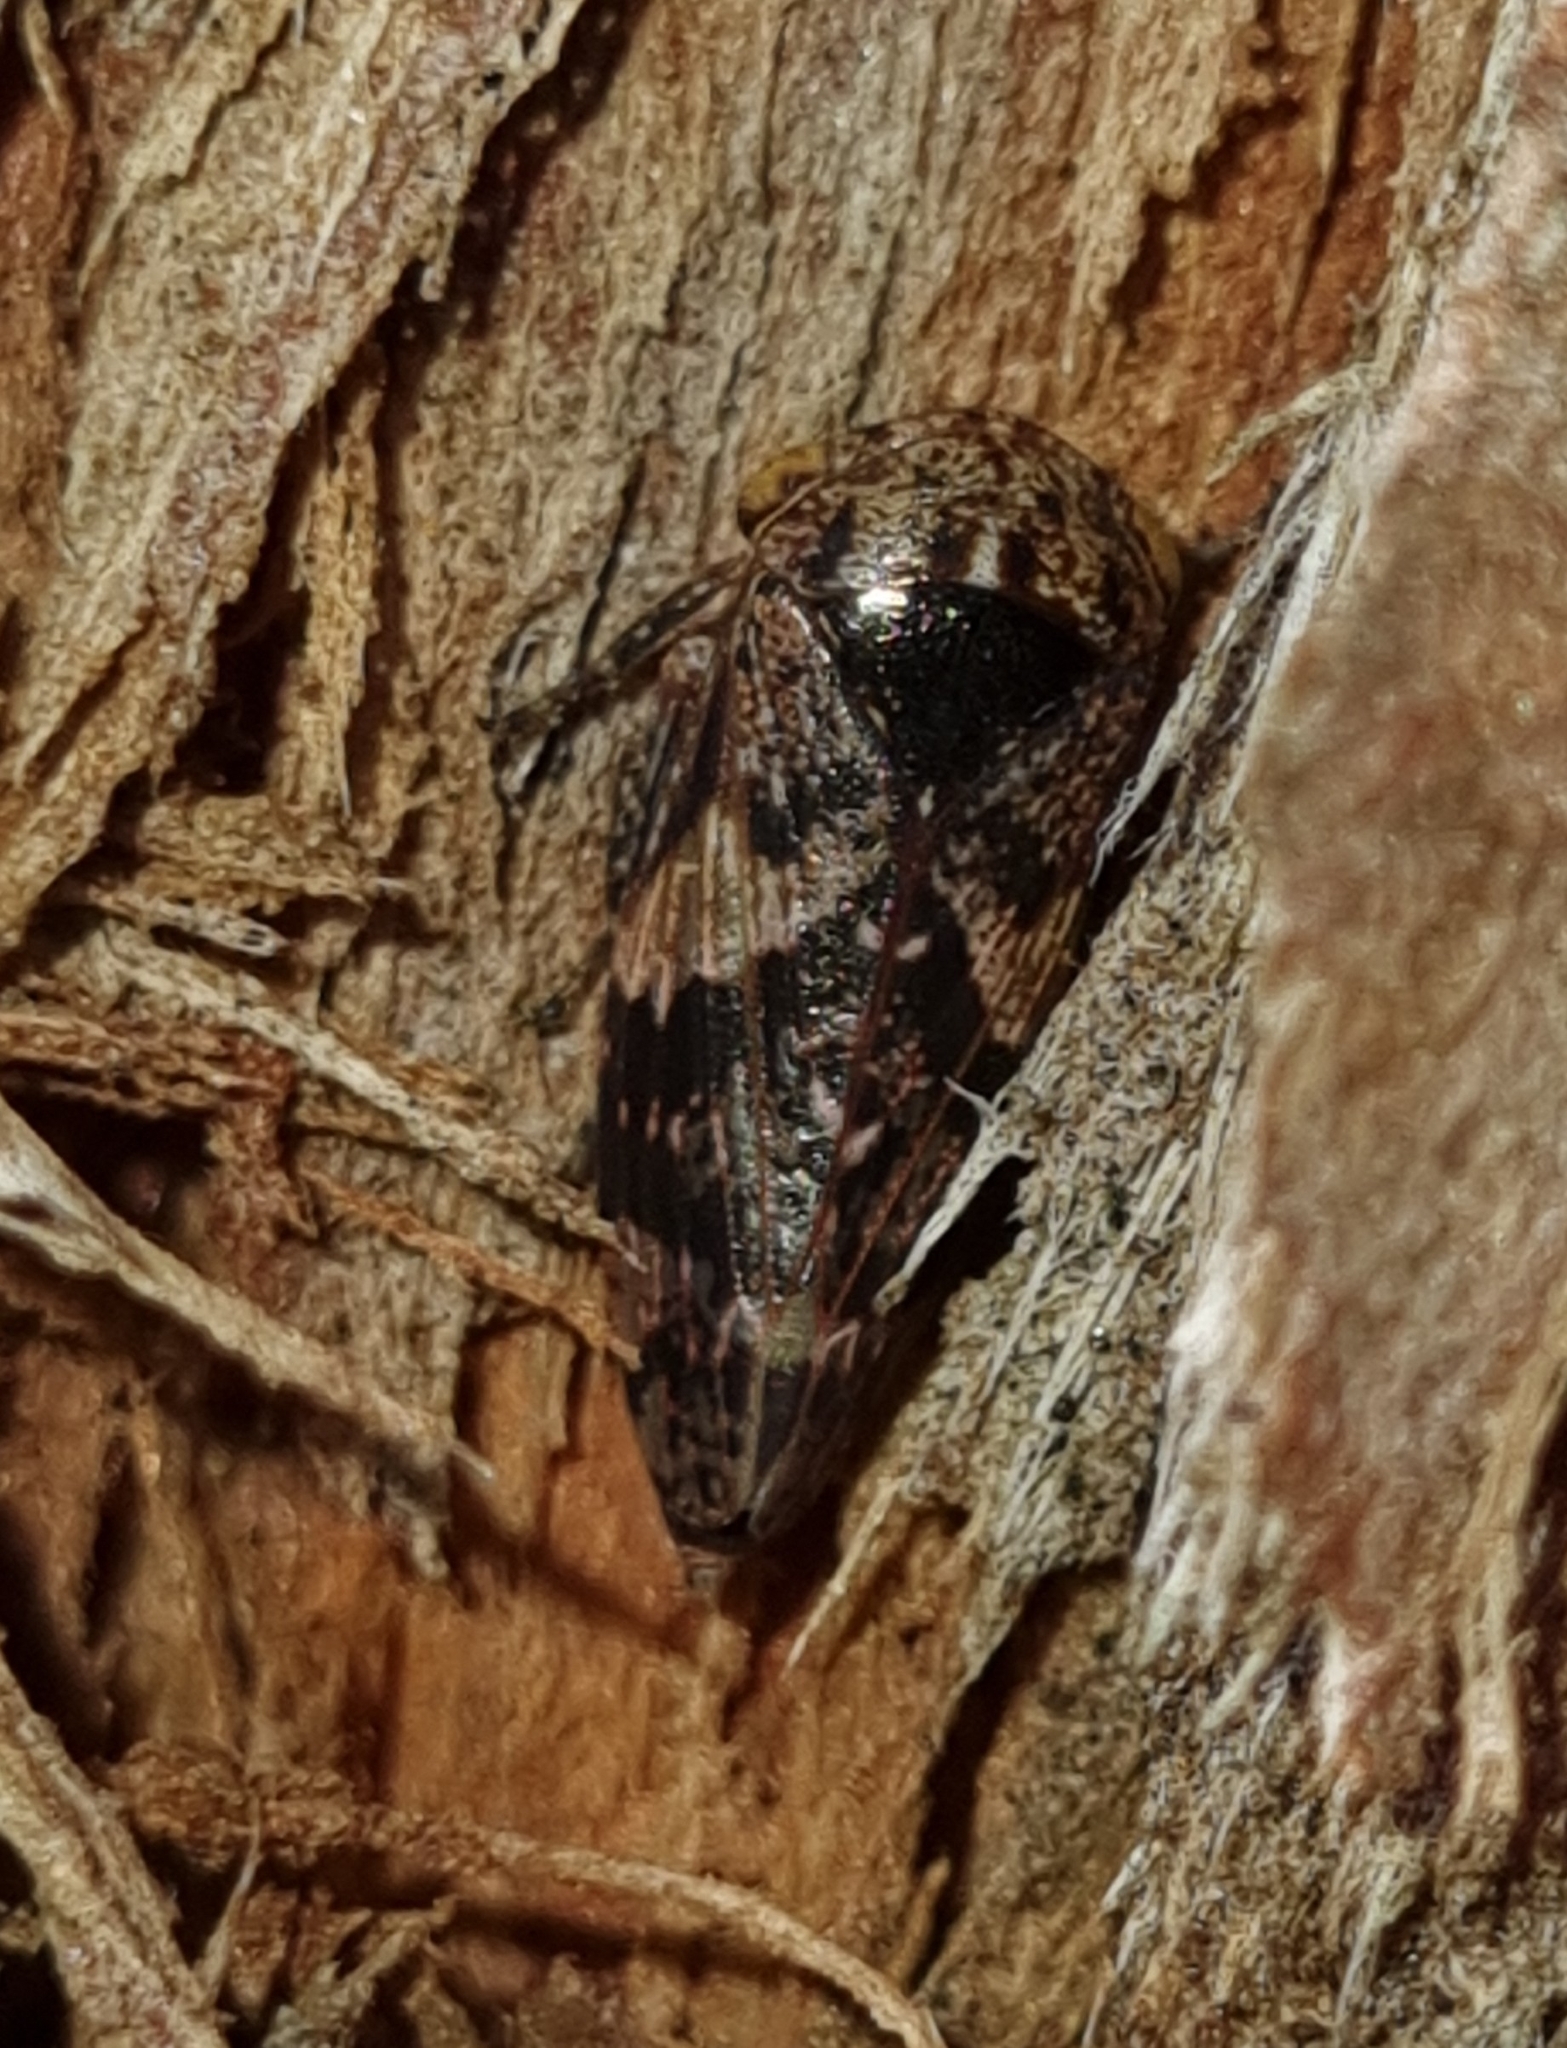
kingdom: Animalia
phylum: Arthropoda
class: Insecta
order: Hemiptera
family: Cicadellidae
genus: Eurymeloides
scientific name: Eurymeloides adspersa
